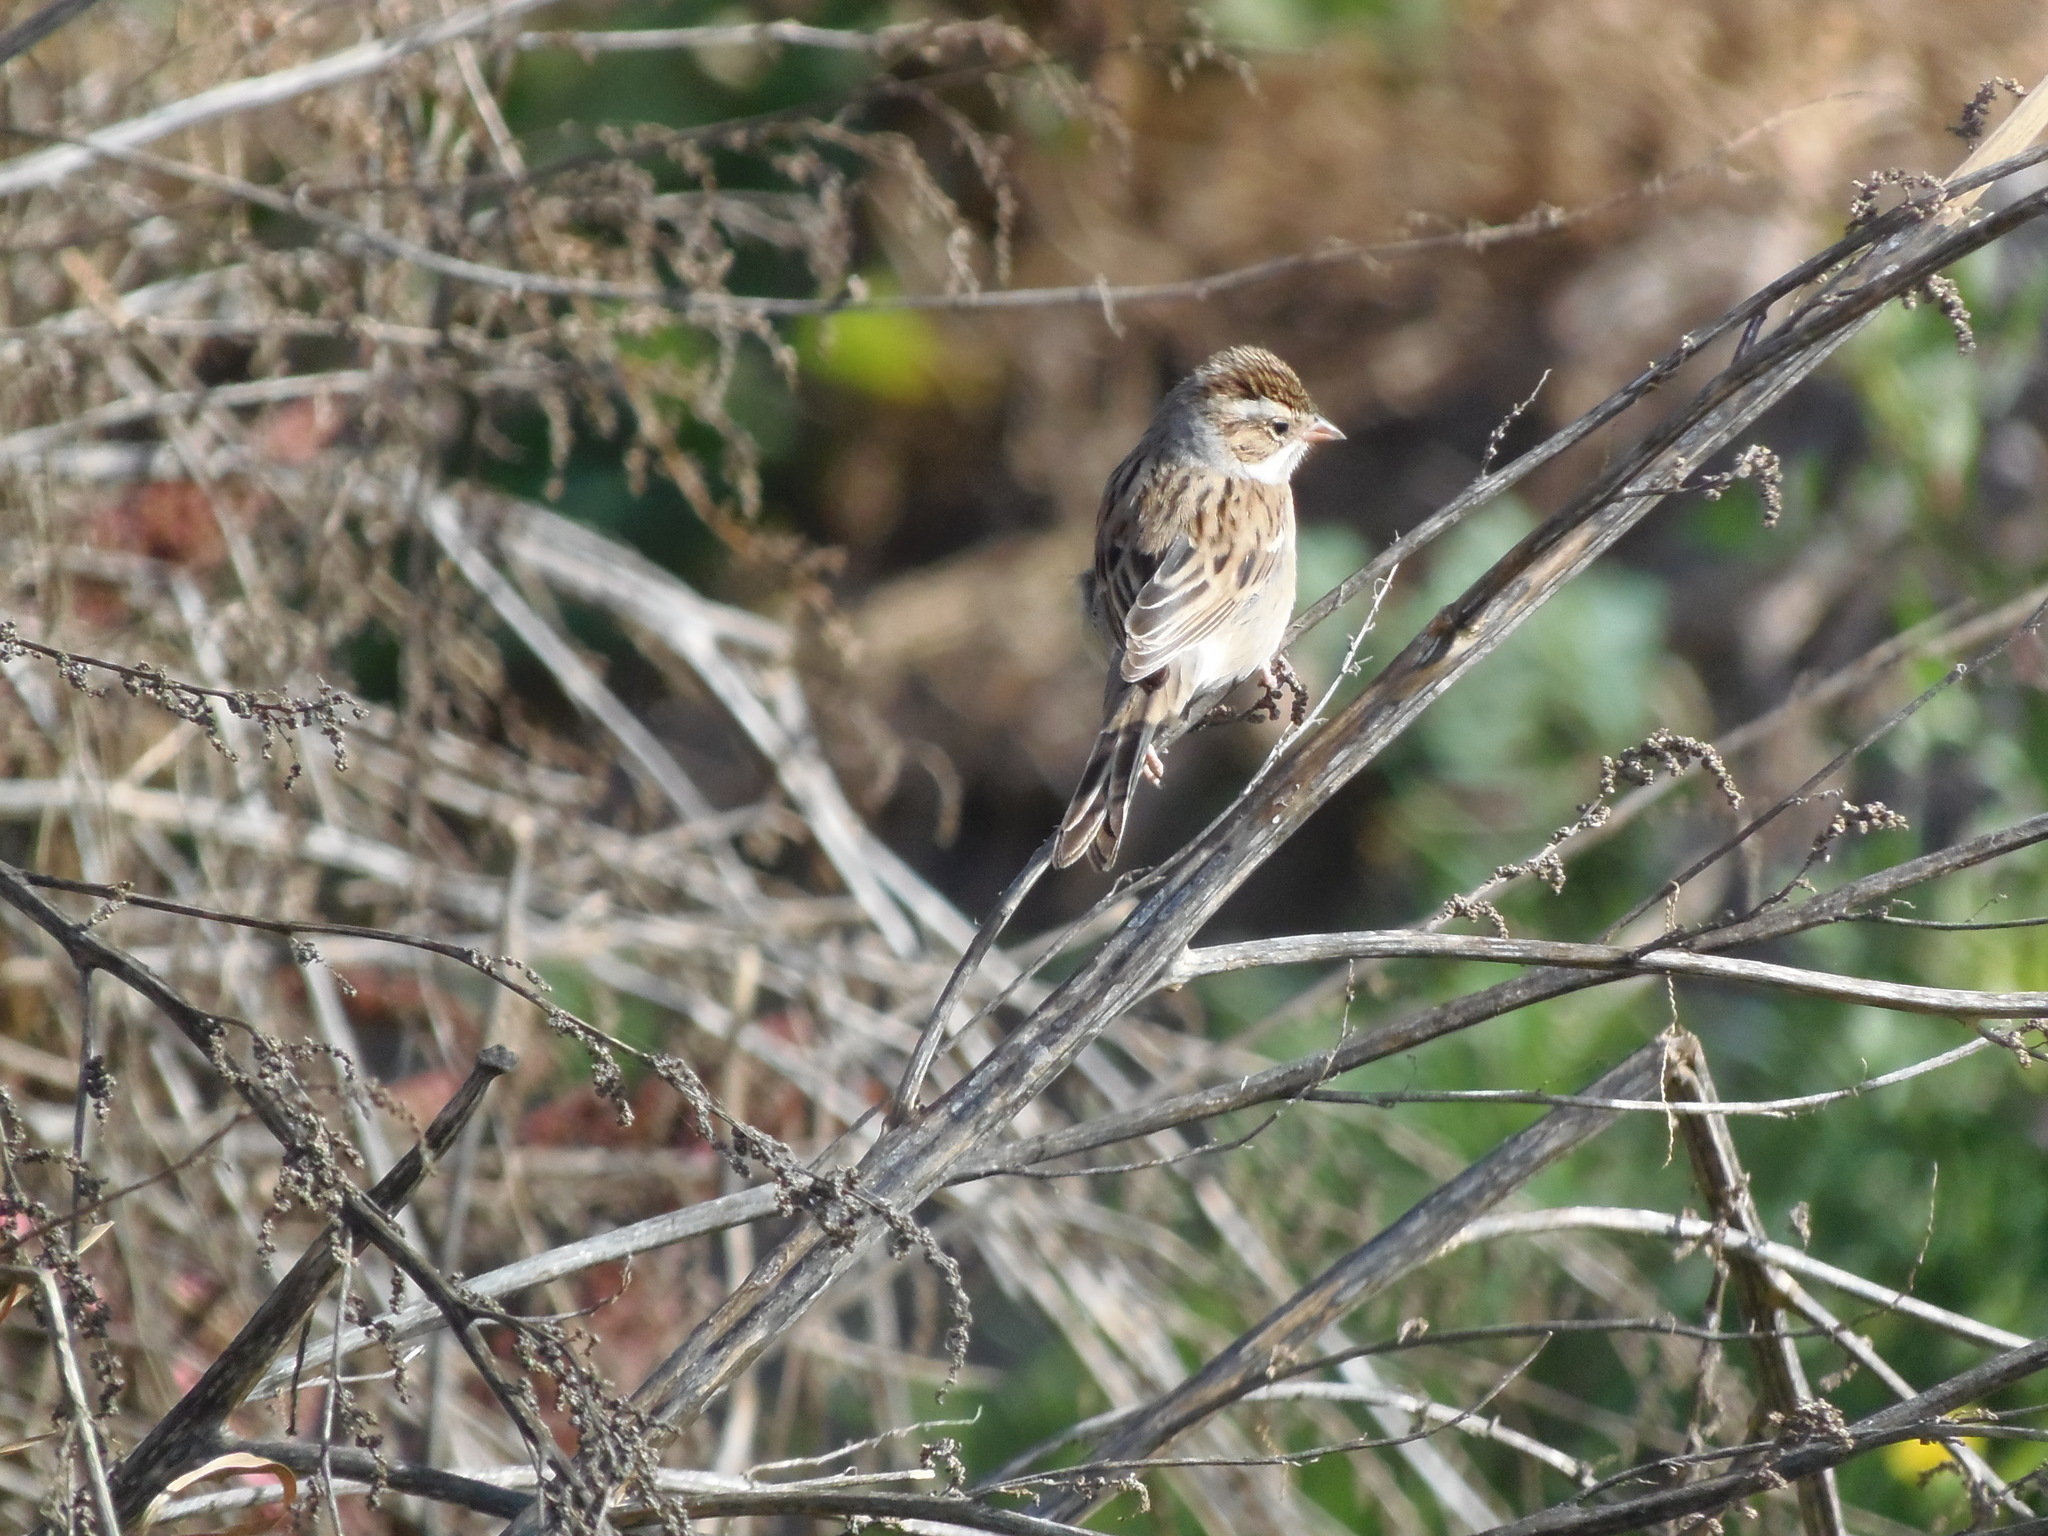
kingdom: Animalia
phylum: Chordata
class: Aves
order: Passeriformes
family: Passerellidae
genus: Spizella
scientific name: Spizella pallida
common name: Clay-colored sparrow
